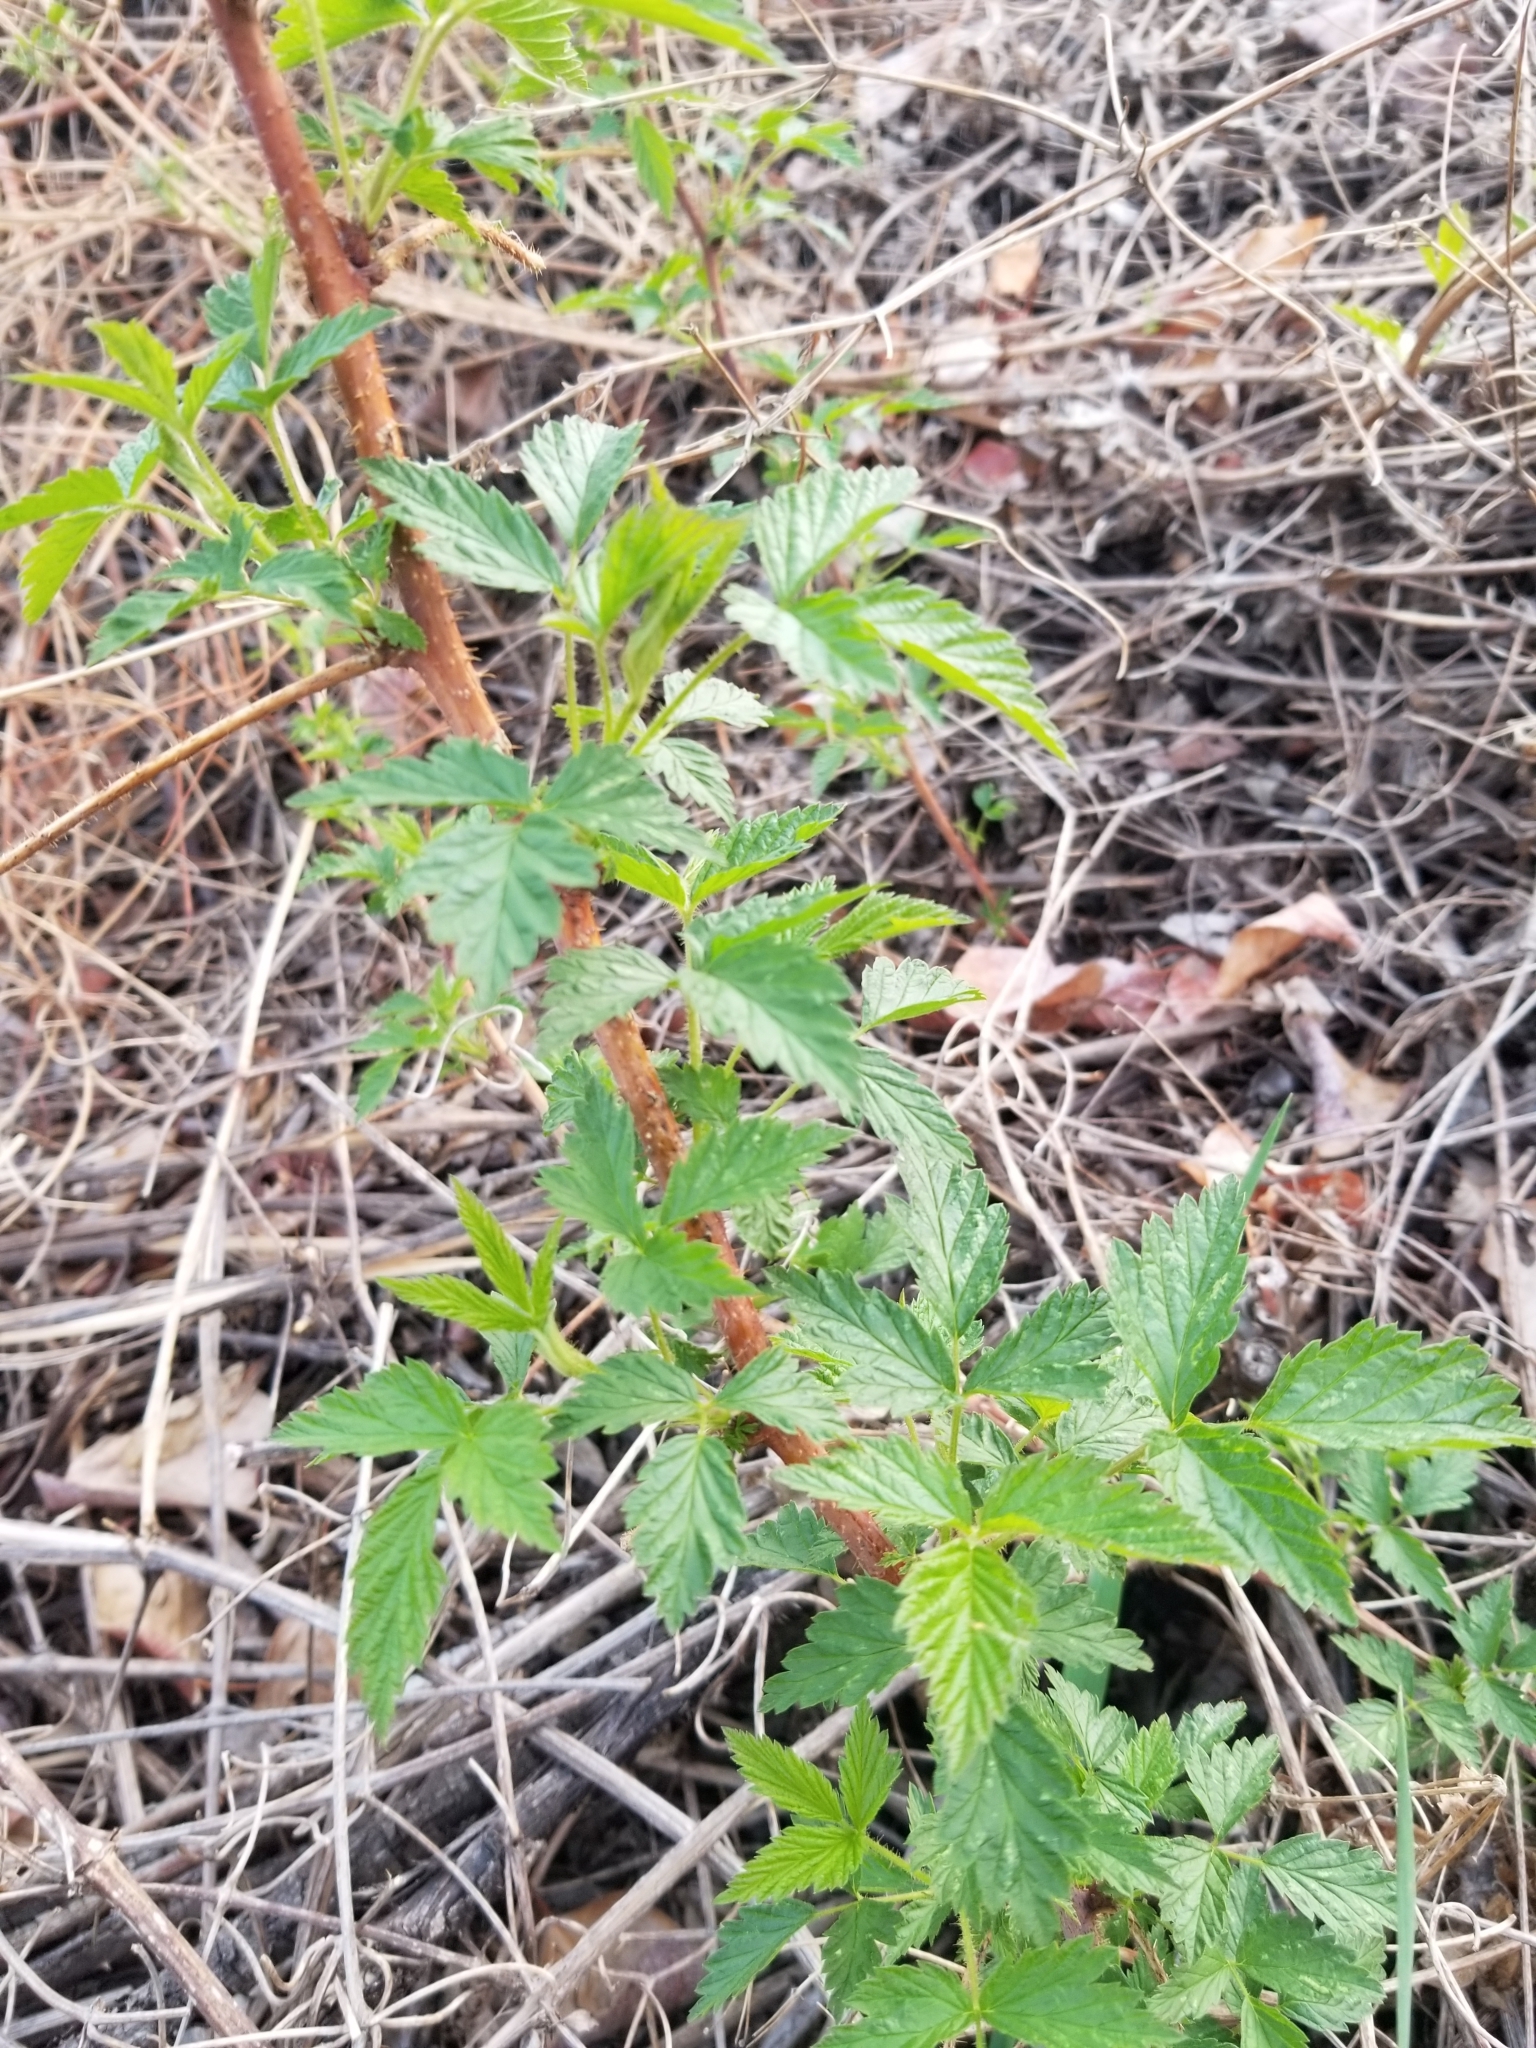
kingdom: Plantae
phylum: Tracheophyta
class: Magnoliopsida
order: Rosales
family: Rosaceae
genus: Rubus
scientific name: Rubus idaeus
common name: Raspberry
